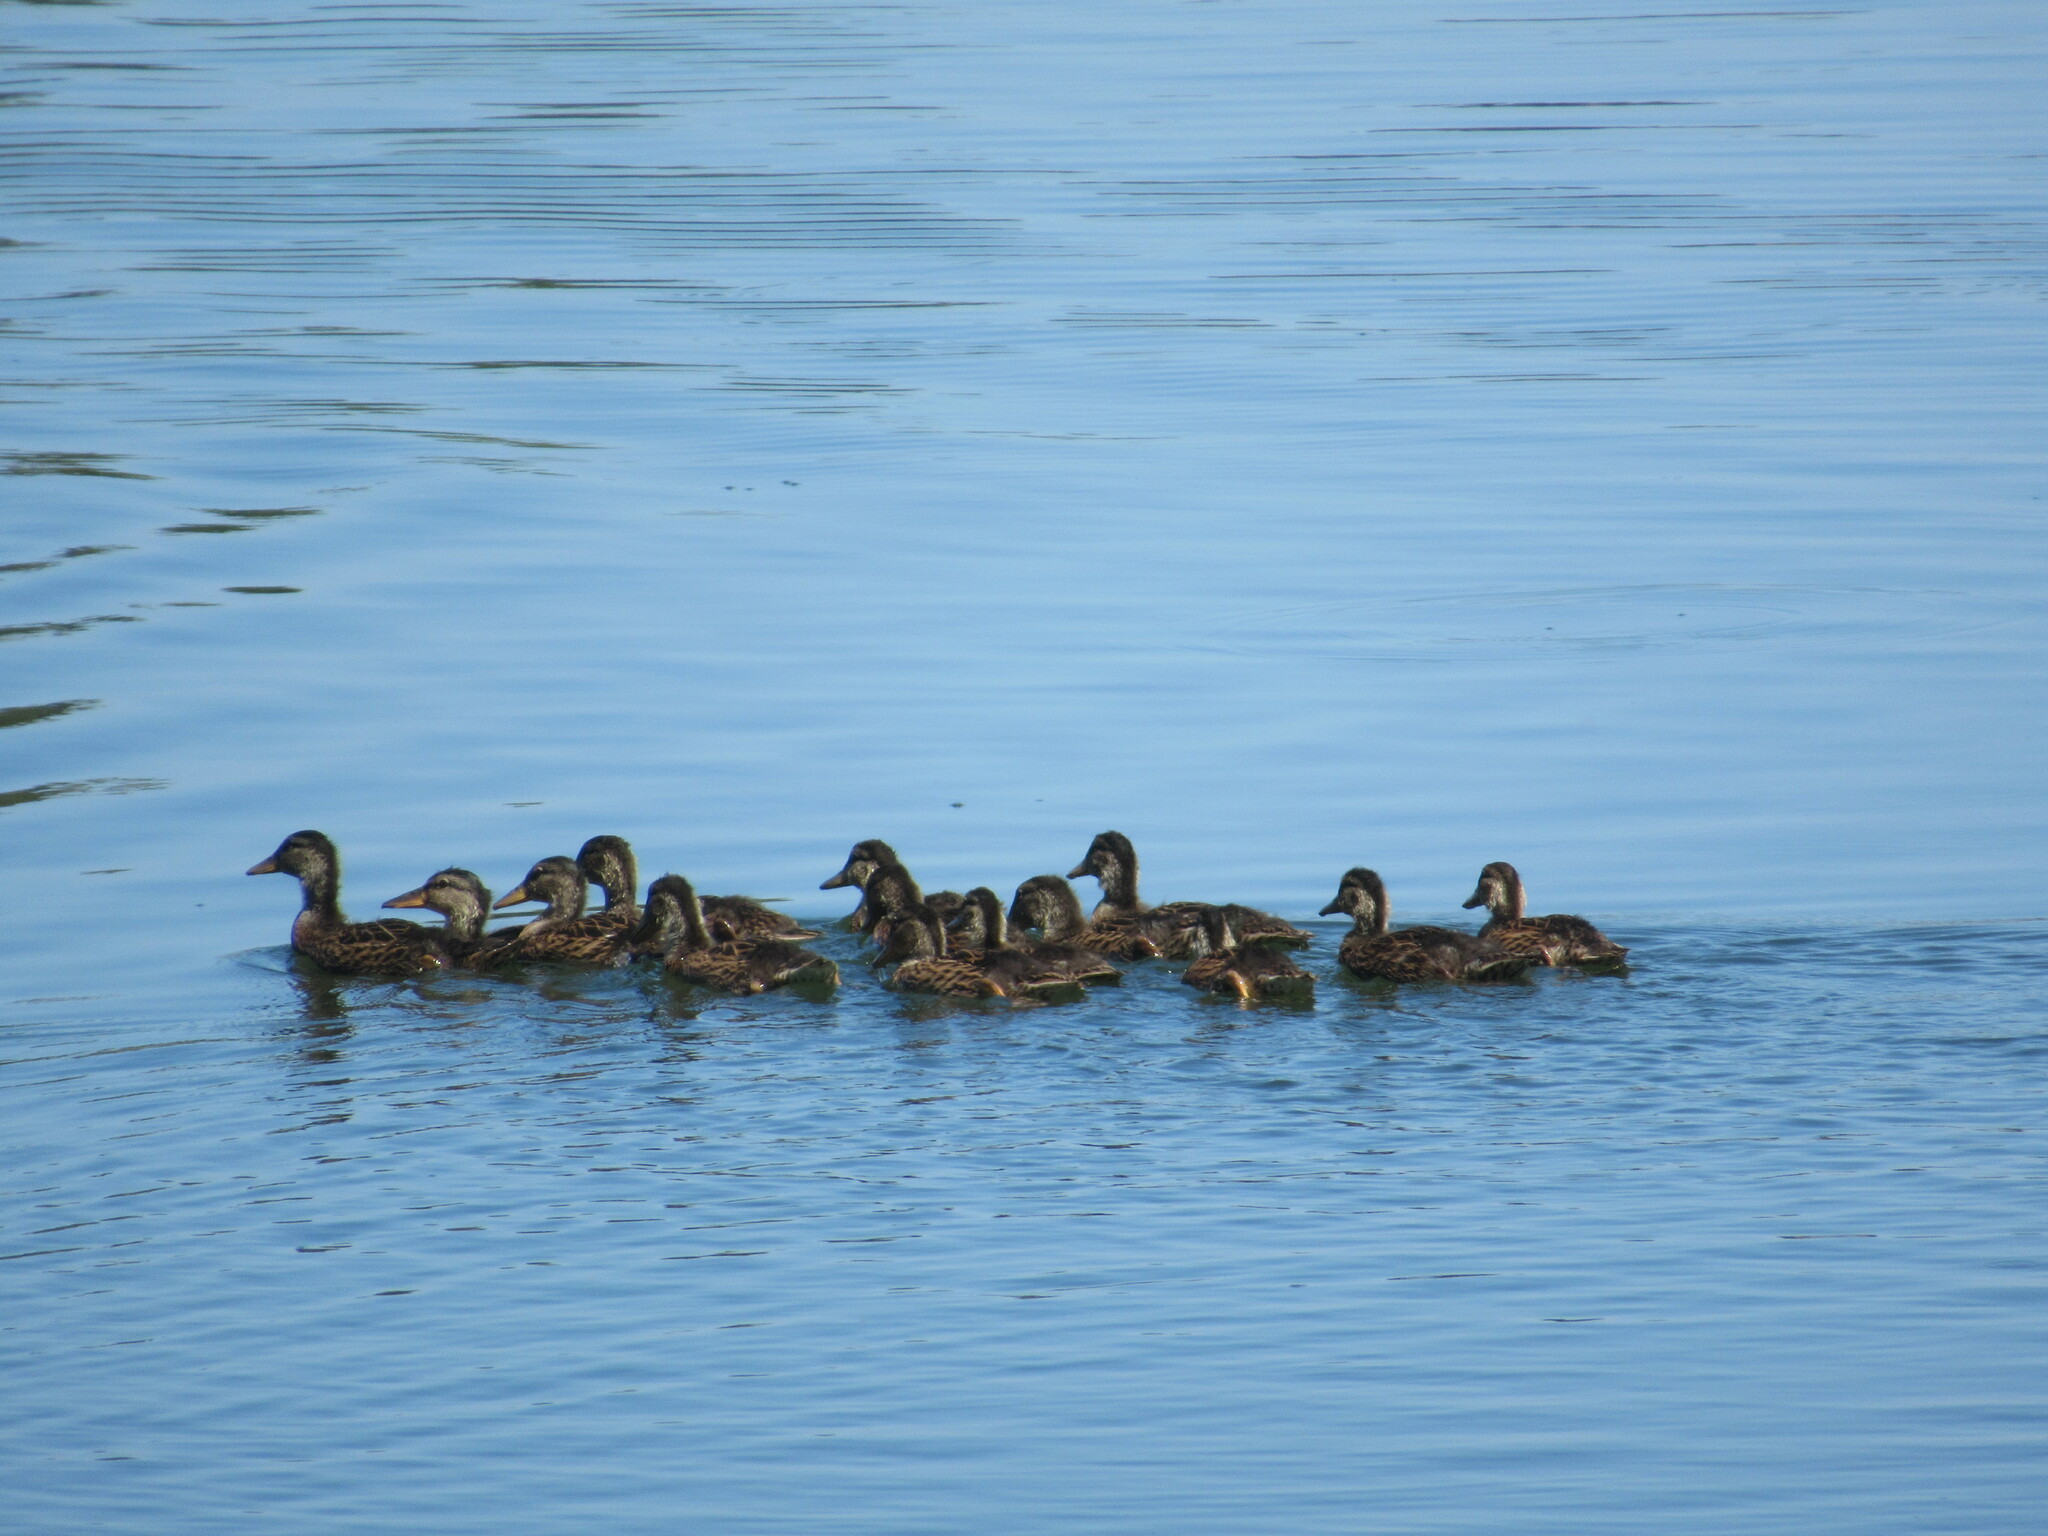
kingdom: Animalia
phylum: Chordata
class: Aves
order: Anseriformes
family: Anatidae
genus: Anas
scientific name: Anas platyrhynchos
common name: Mallard
